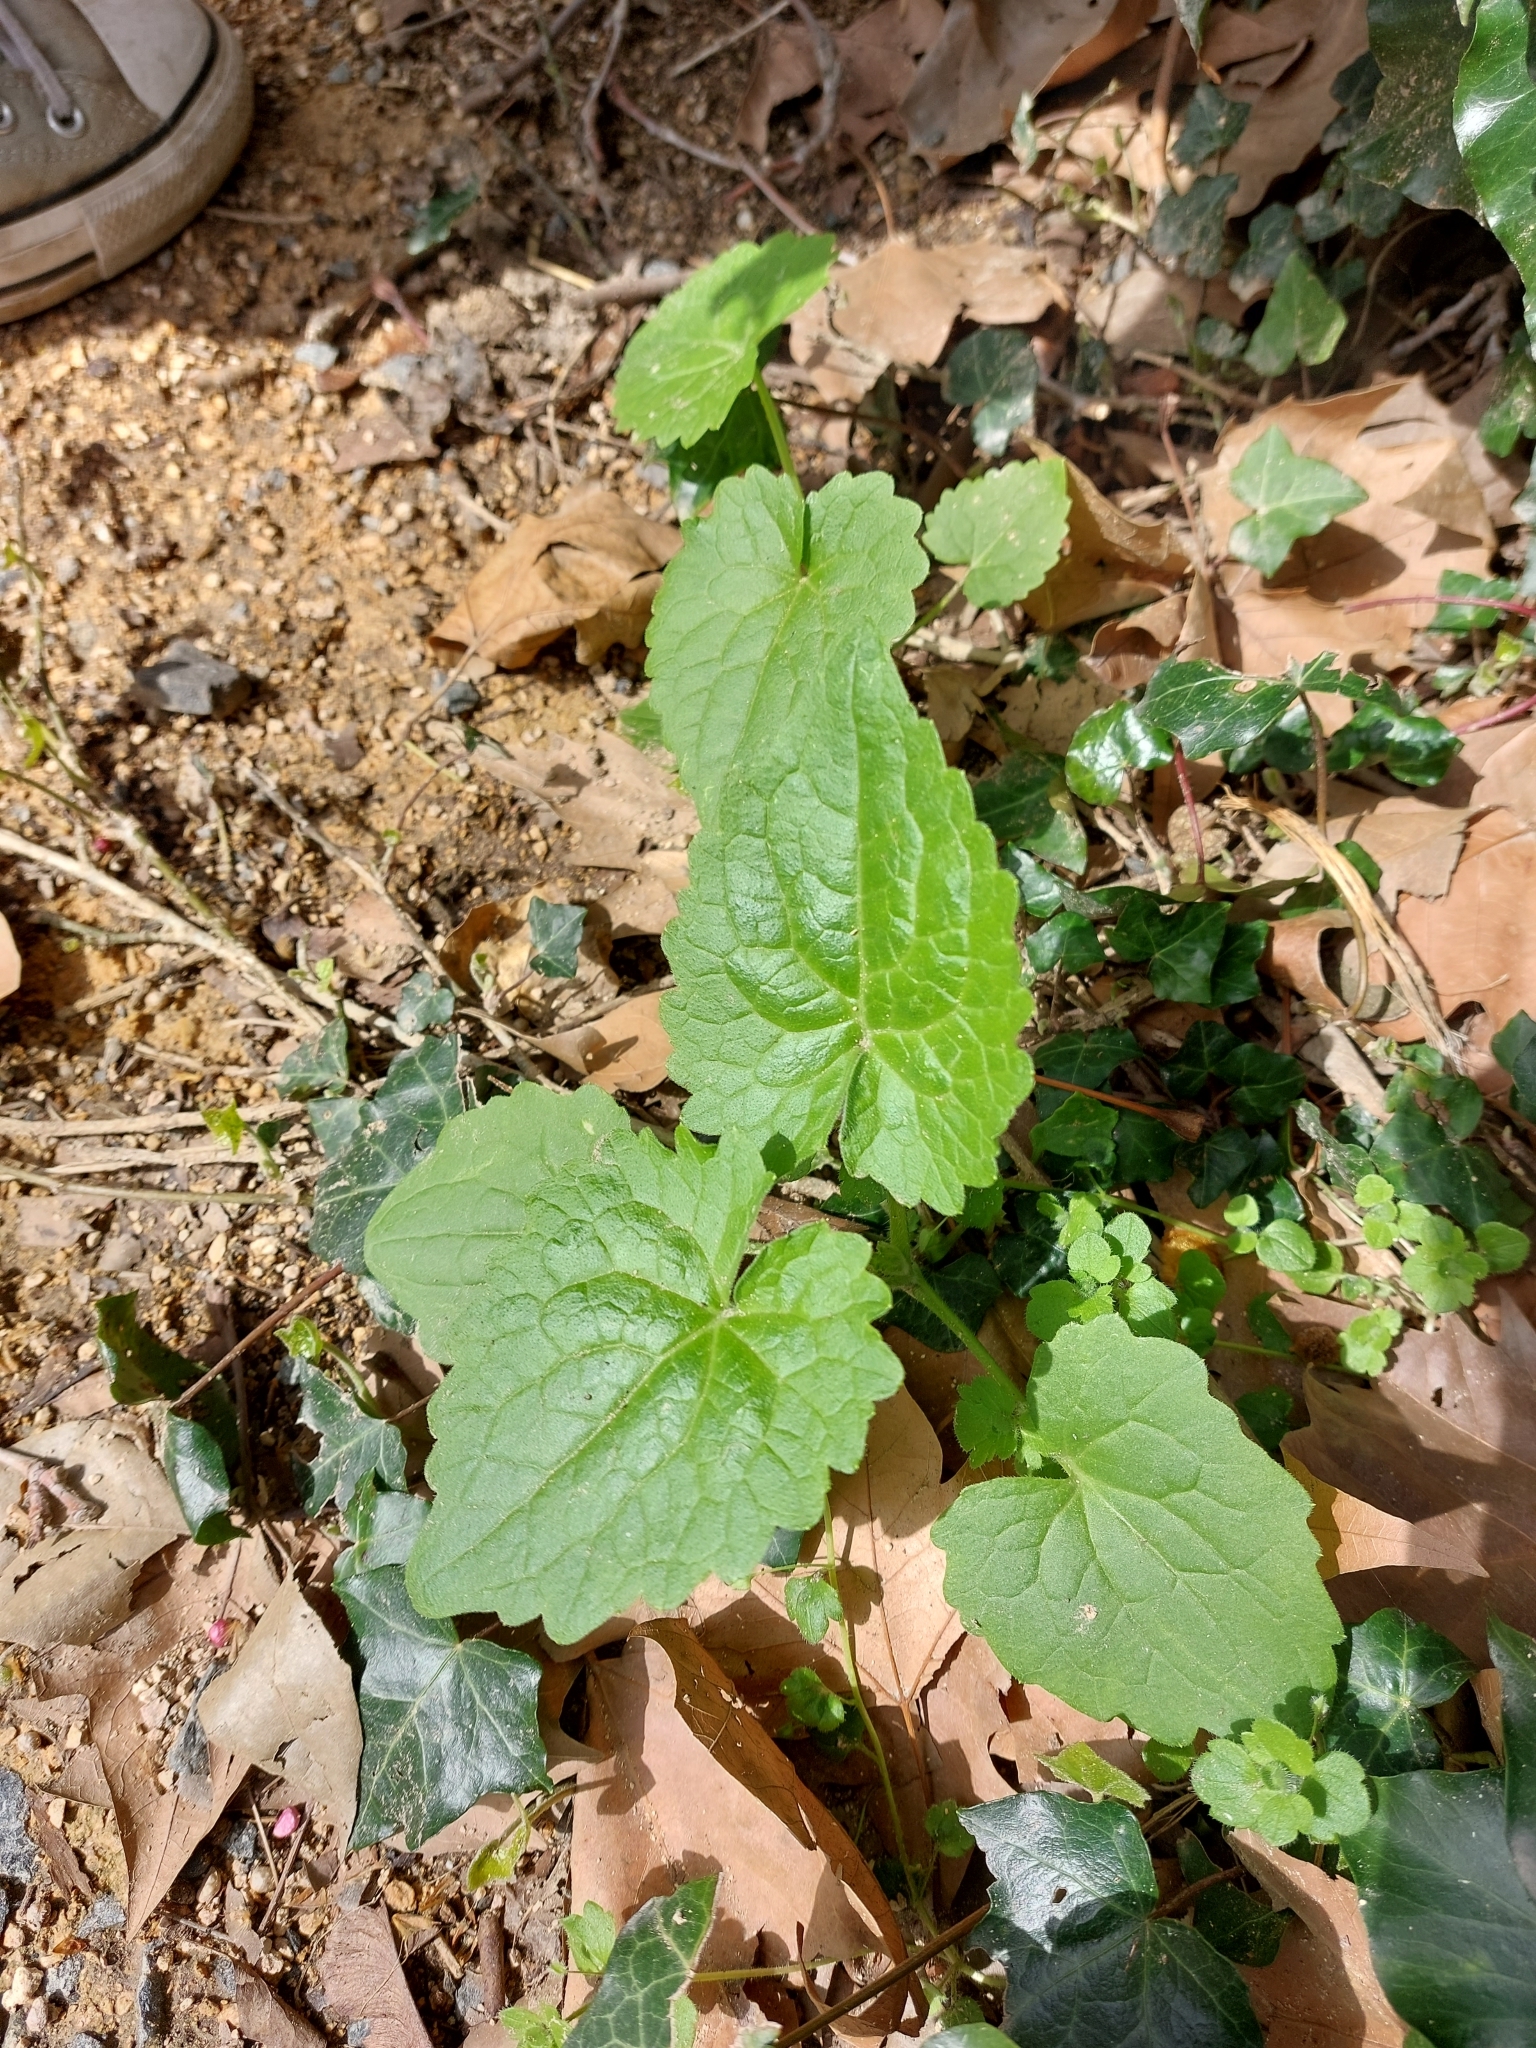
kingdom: Plantae
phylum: Tracheophyta
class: Magnoliopsida
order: Brassicales
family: Brassicaceae
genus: Lunaria
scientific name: Lunaria annua
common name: Honesty
